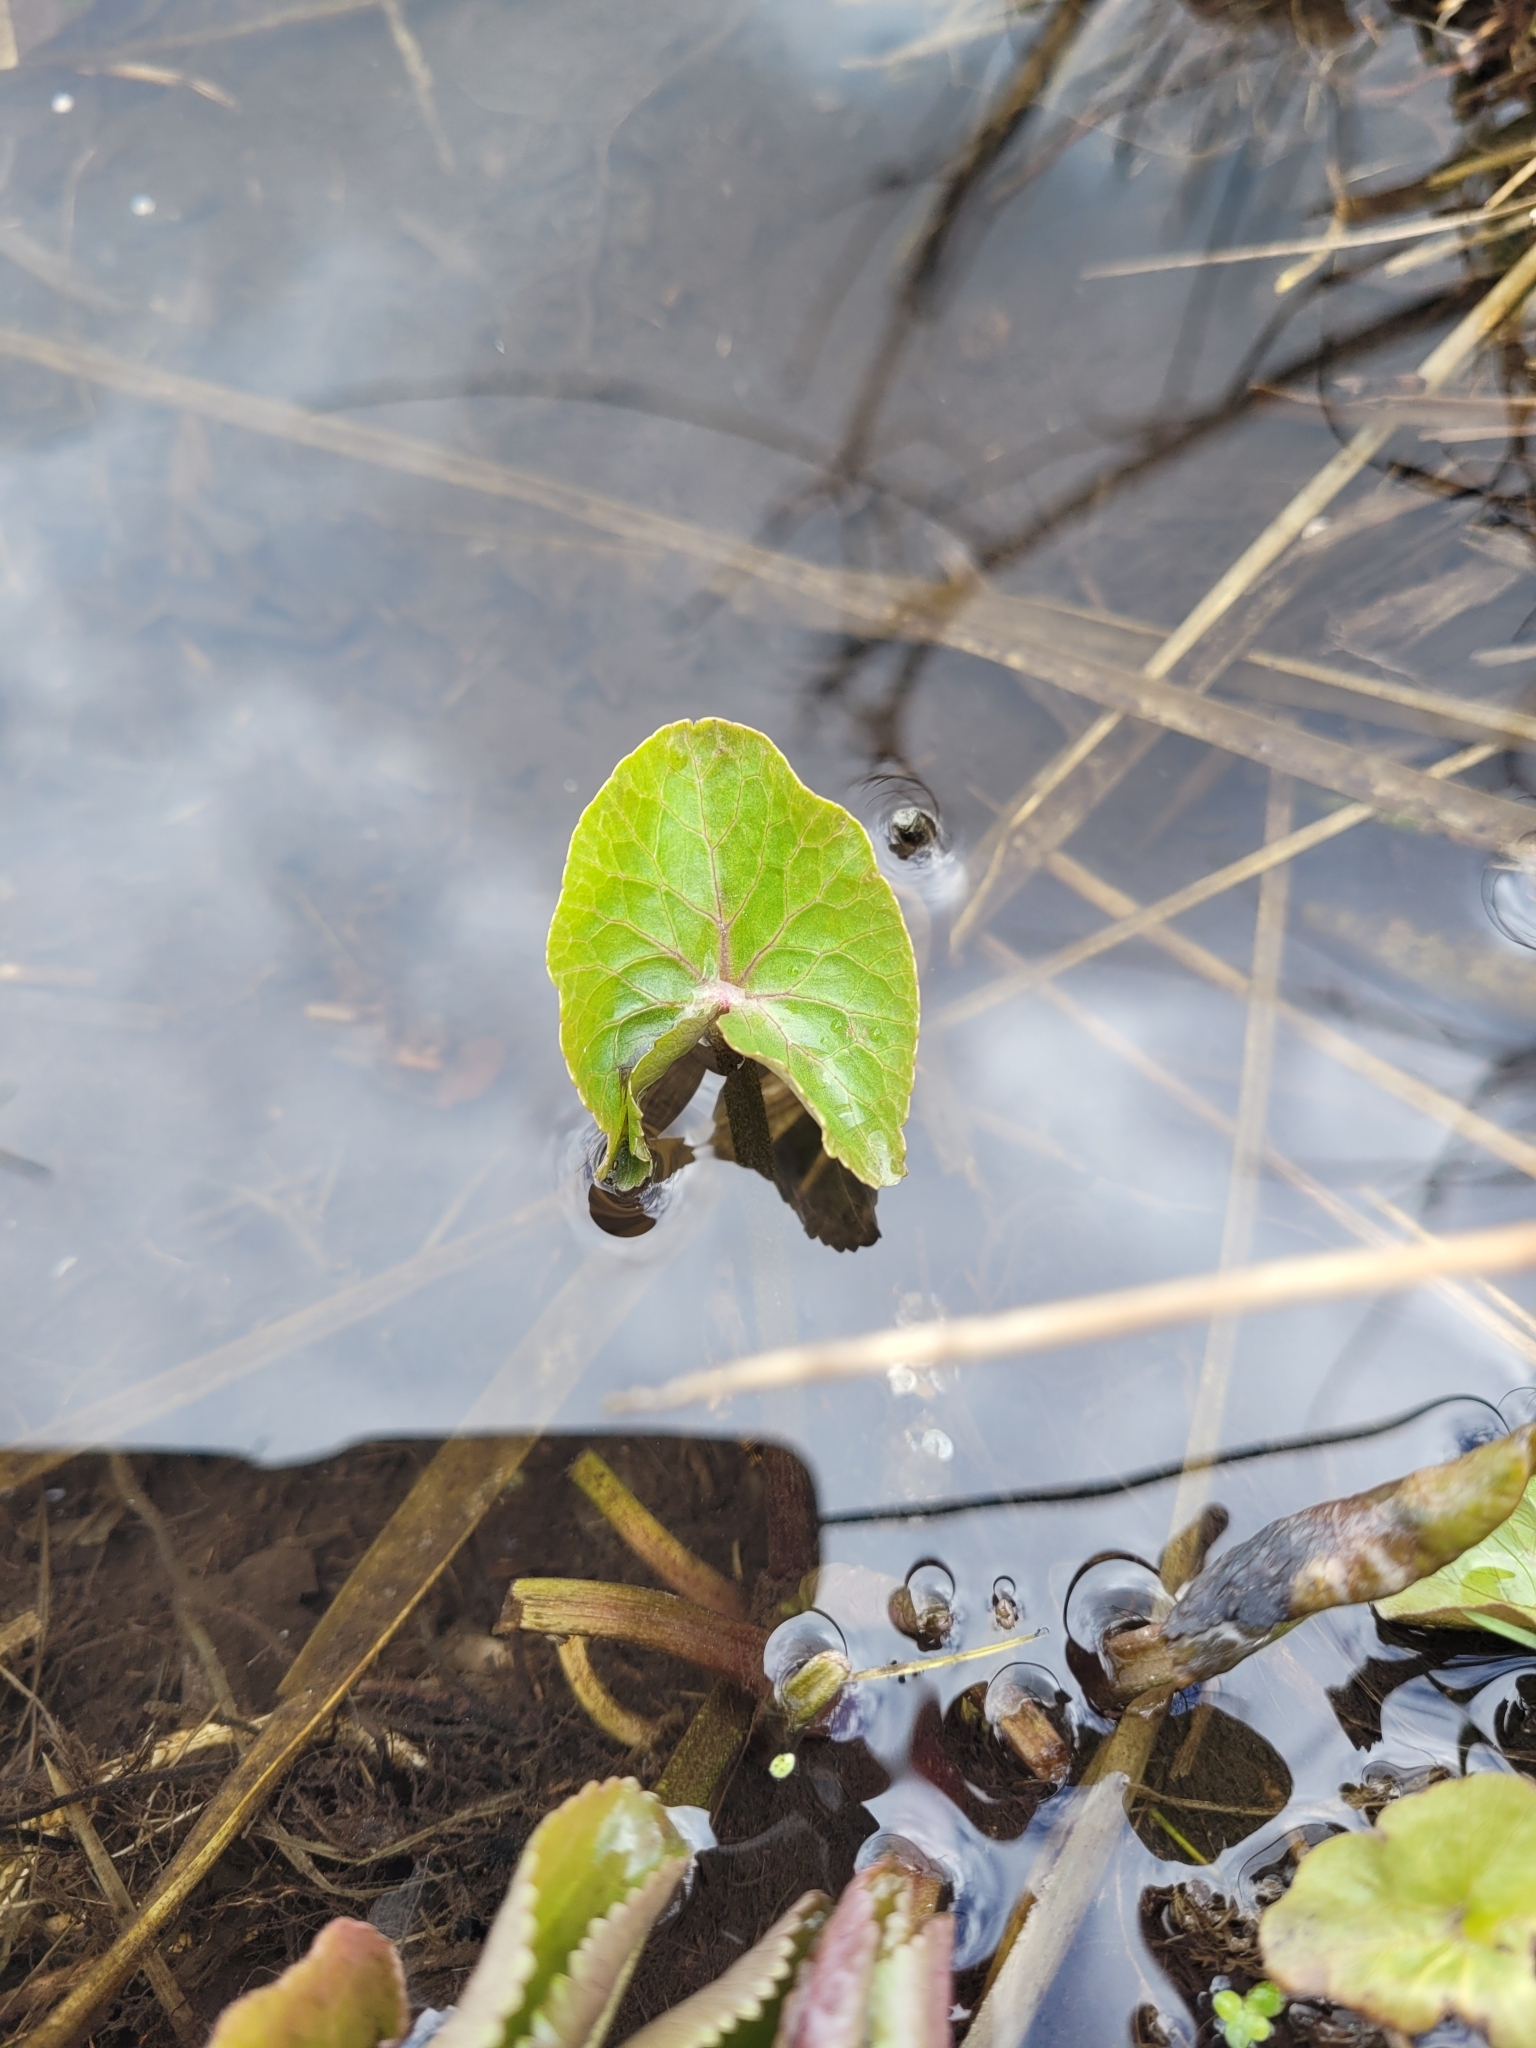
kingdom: Plantae
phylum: Tracheophyta
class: Magnoliopsida
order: Ranunculales
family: Ranunculaceae
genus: Caltha
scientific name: Caltha palustris
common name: Marsh marigold
